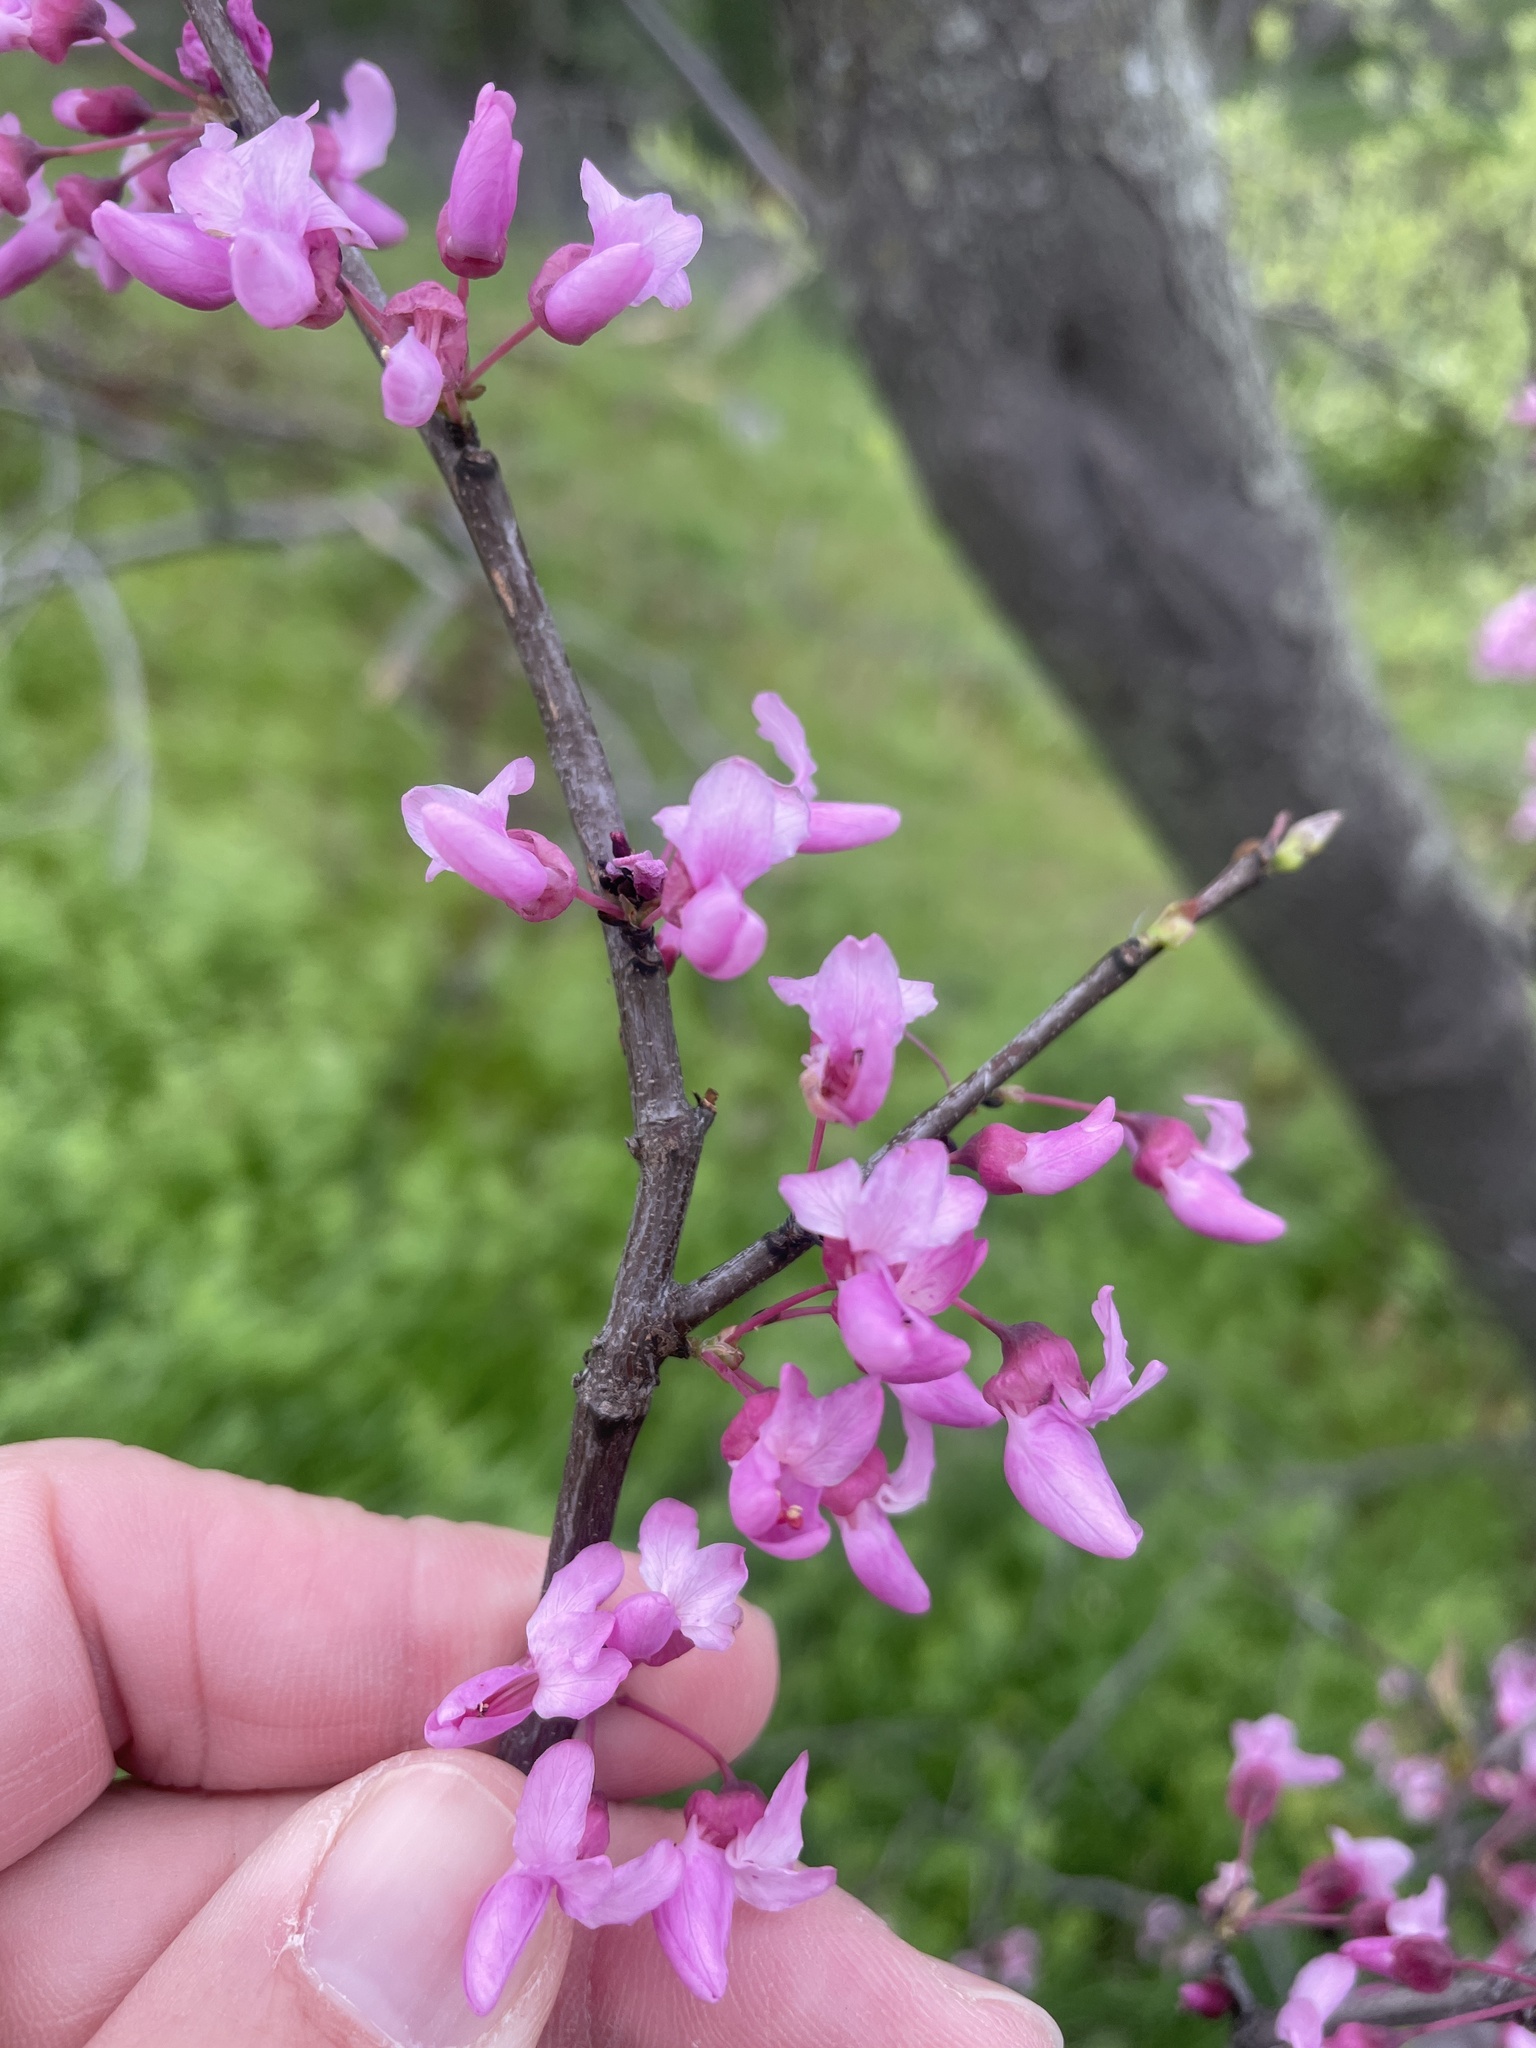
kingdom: Plantae
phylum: Tracheophyta
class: Magnoliopsida
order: Fabales
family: Fabaceae
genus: Cercis
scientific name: Cercis canadensis
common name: Eastern redbud
